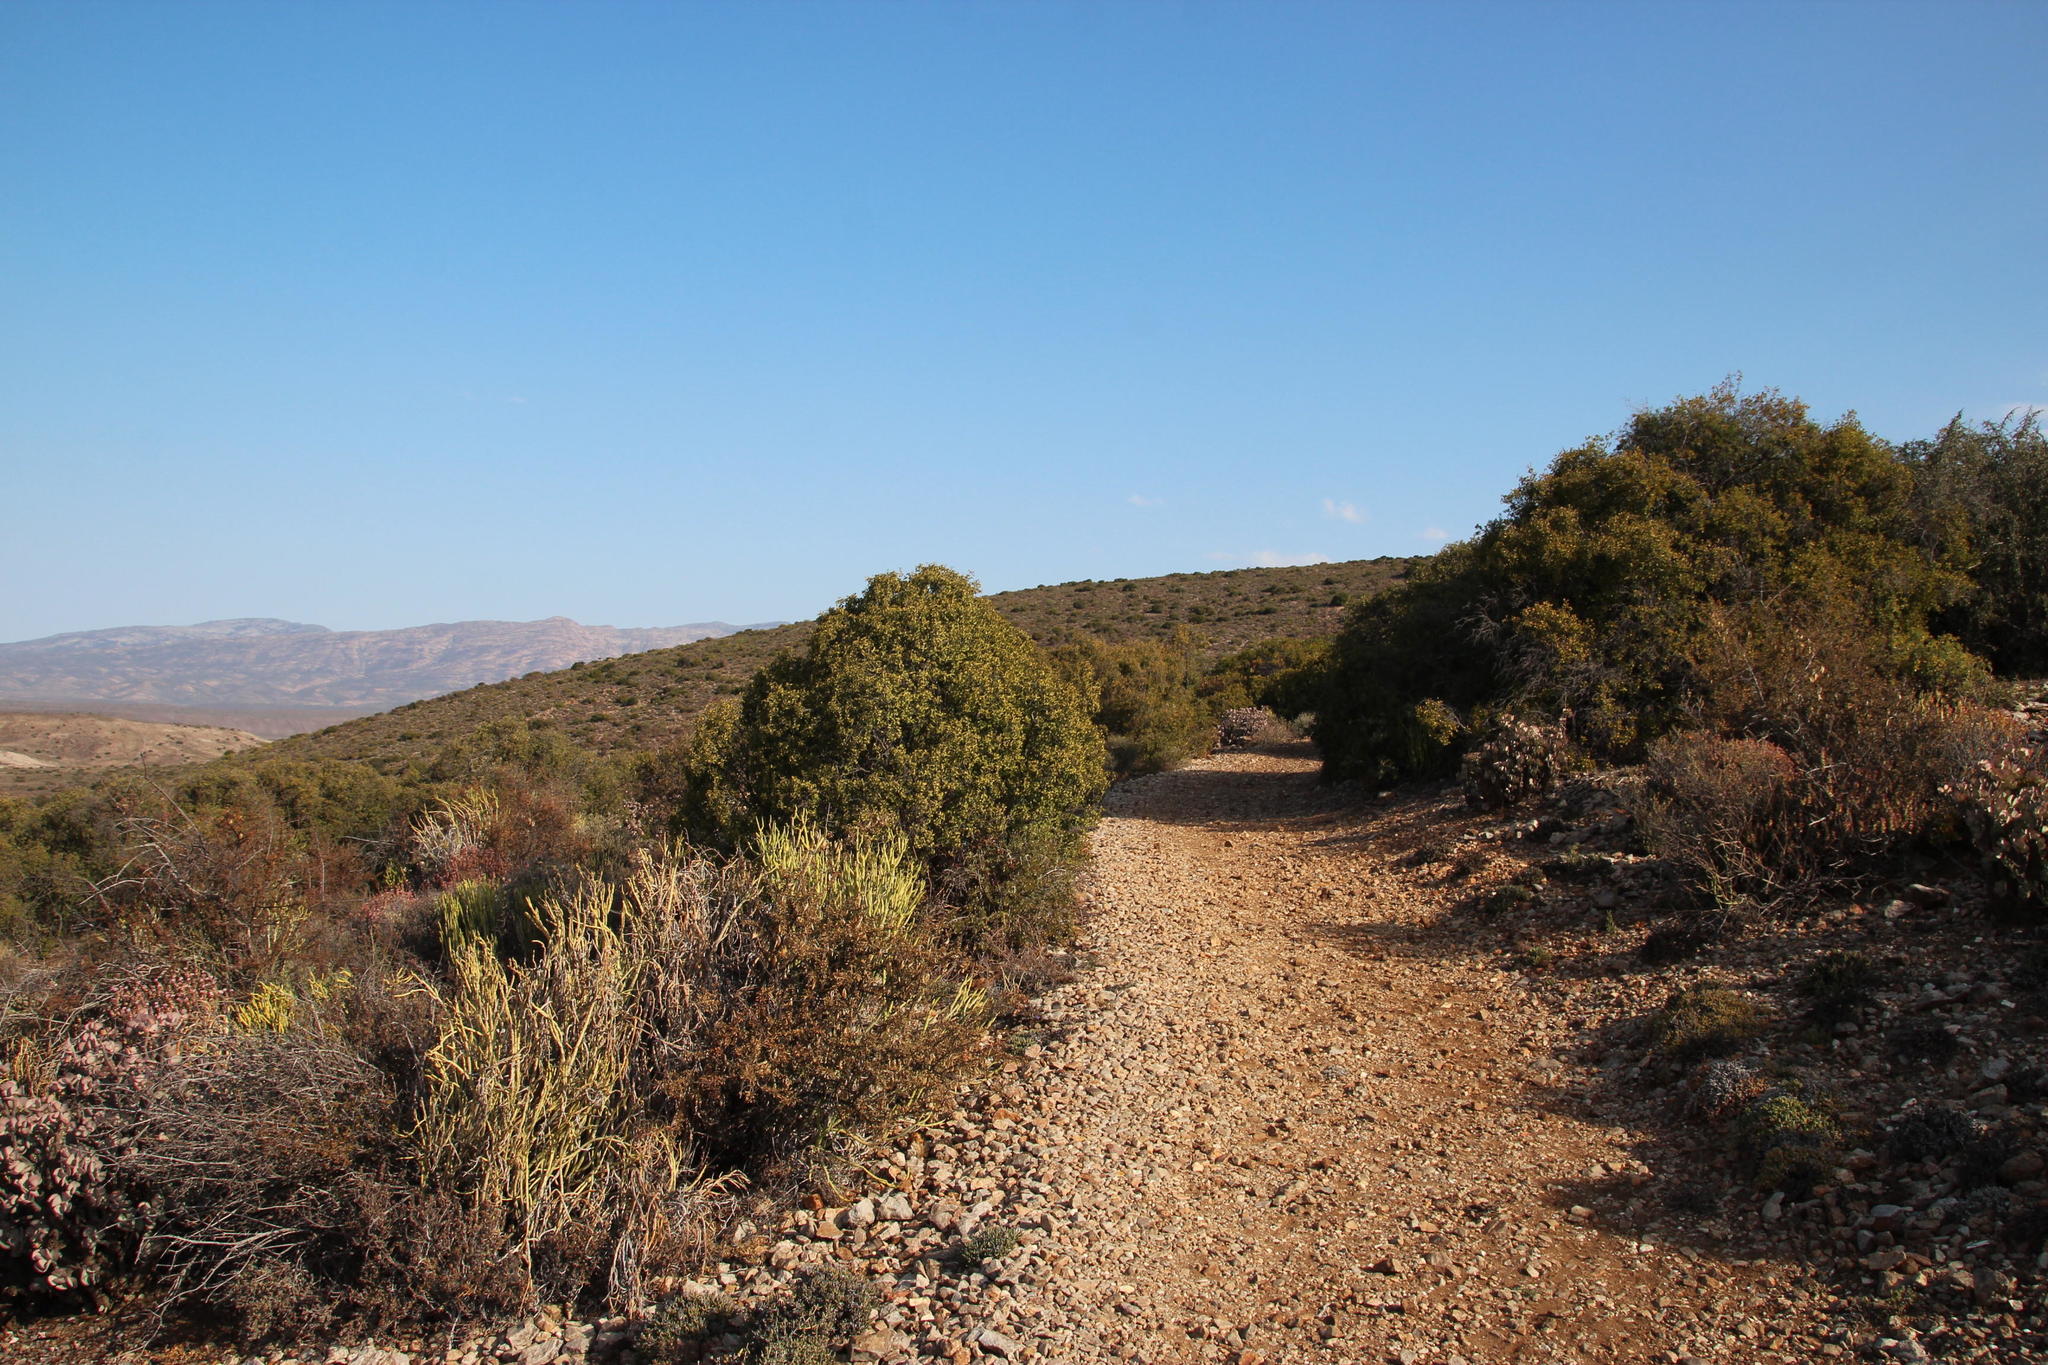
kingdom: Plantae
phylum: Tracheophyta
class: Magnoliopsida
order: Ericales
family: Ebenaceae
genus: Euclea
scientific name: Euclea undulata
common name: Small-leaved guarri
